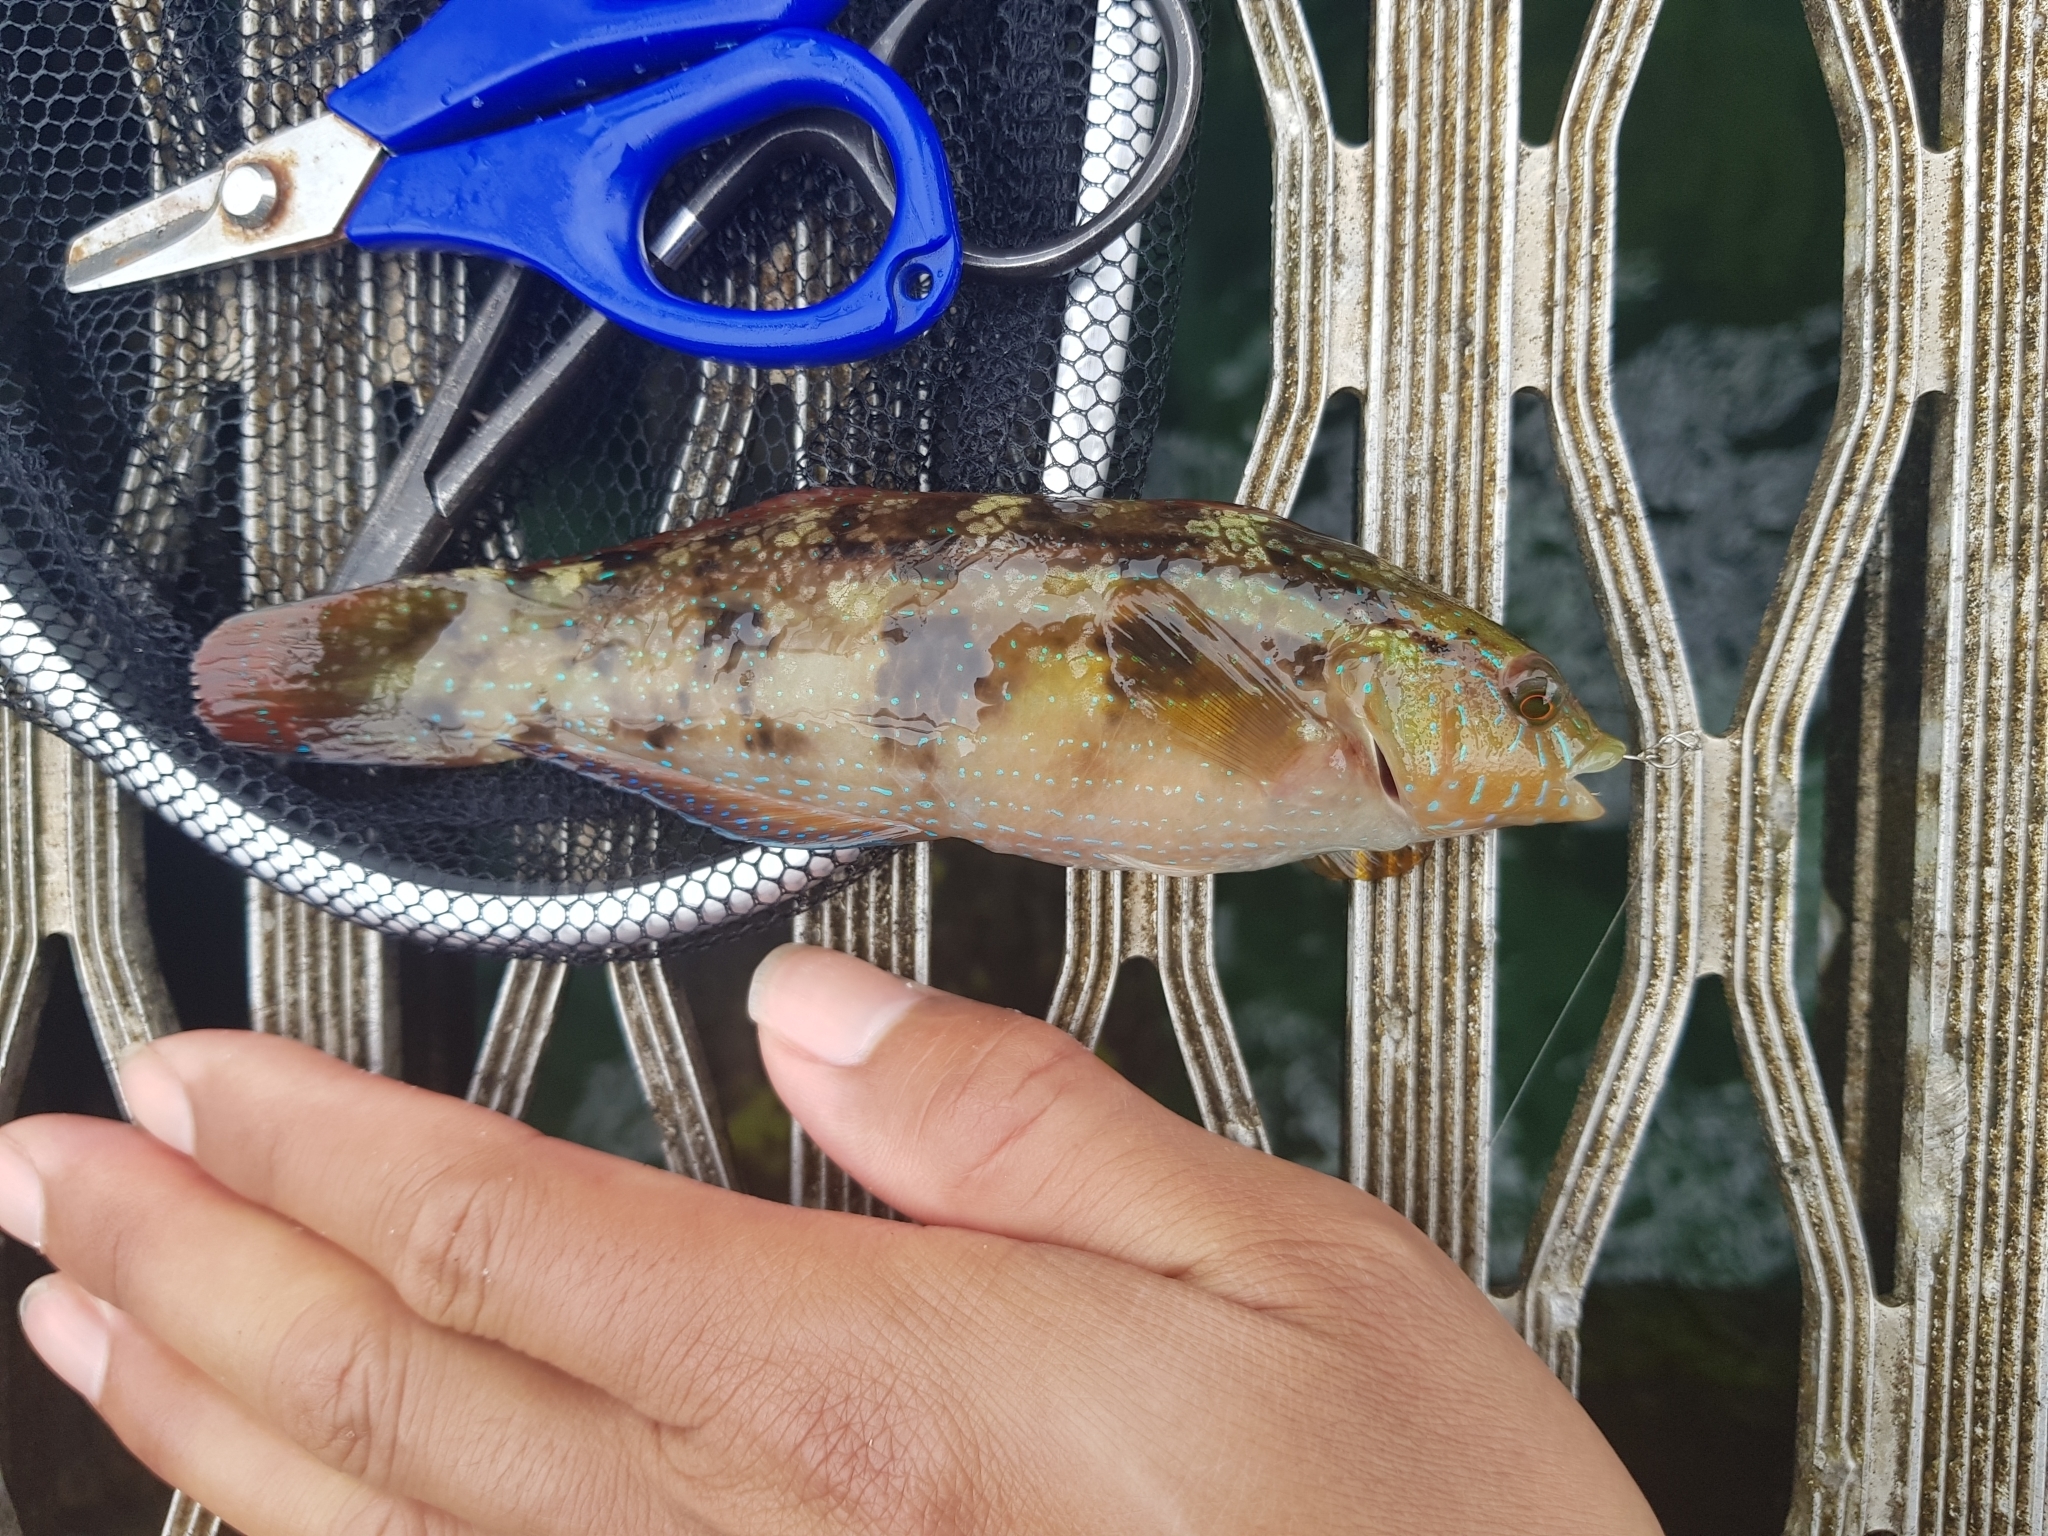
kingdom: Animalia
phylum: Chordata
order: Perciformes
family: Labridae
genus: Pictilabrus
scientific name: Pictilabrus laticlavius
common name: Patrician wrasse
